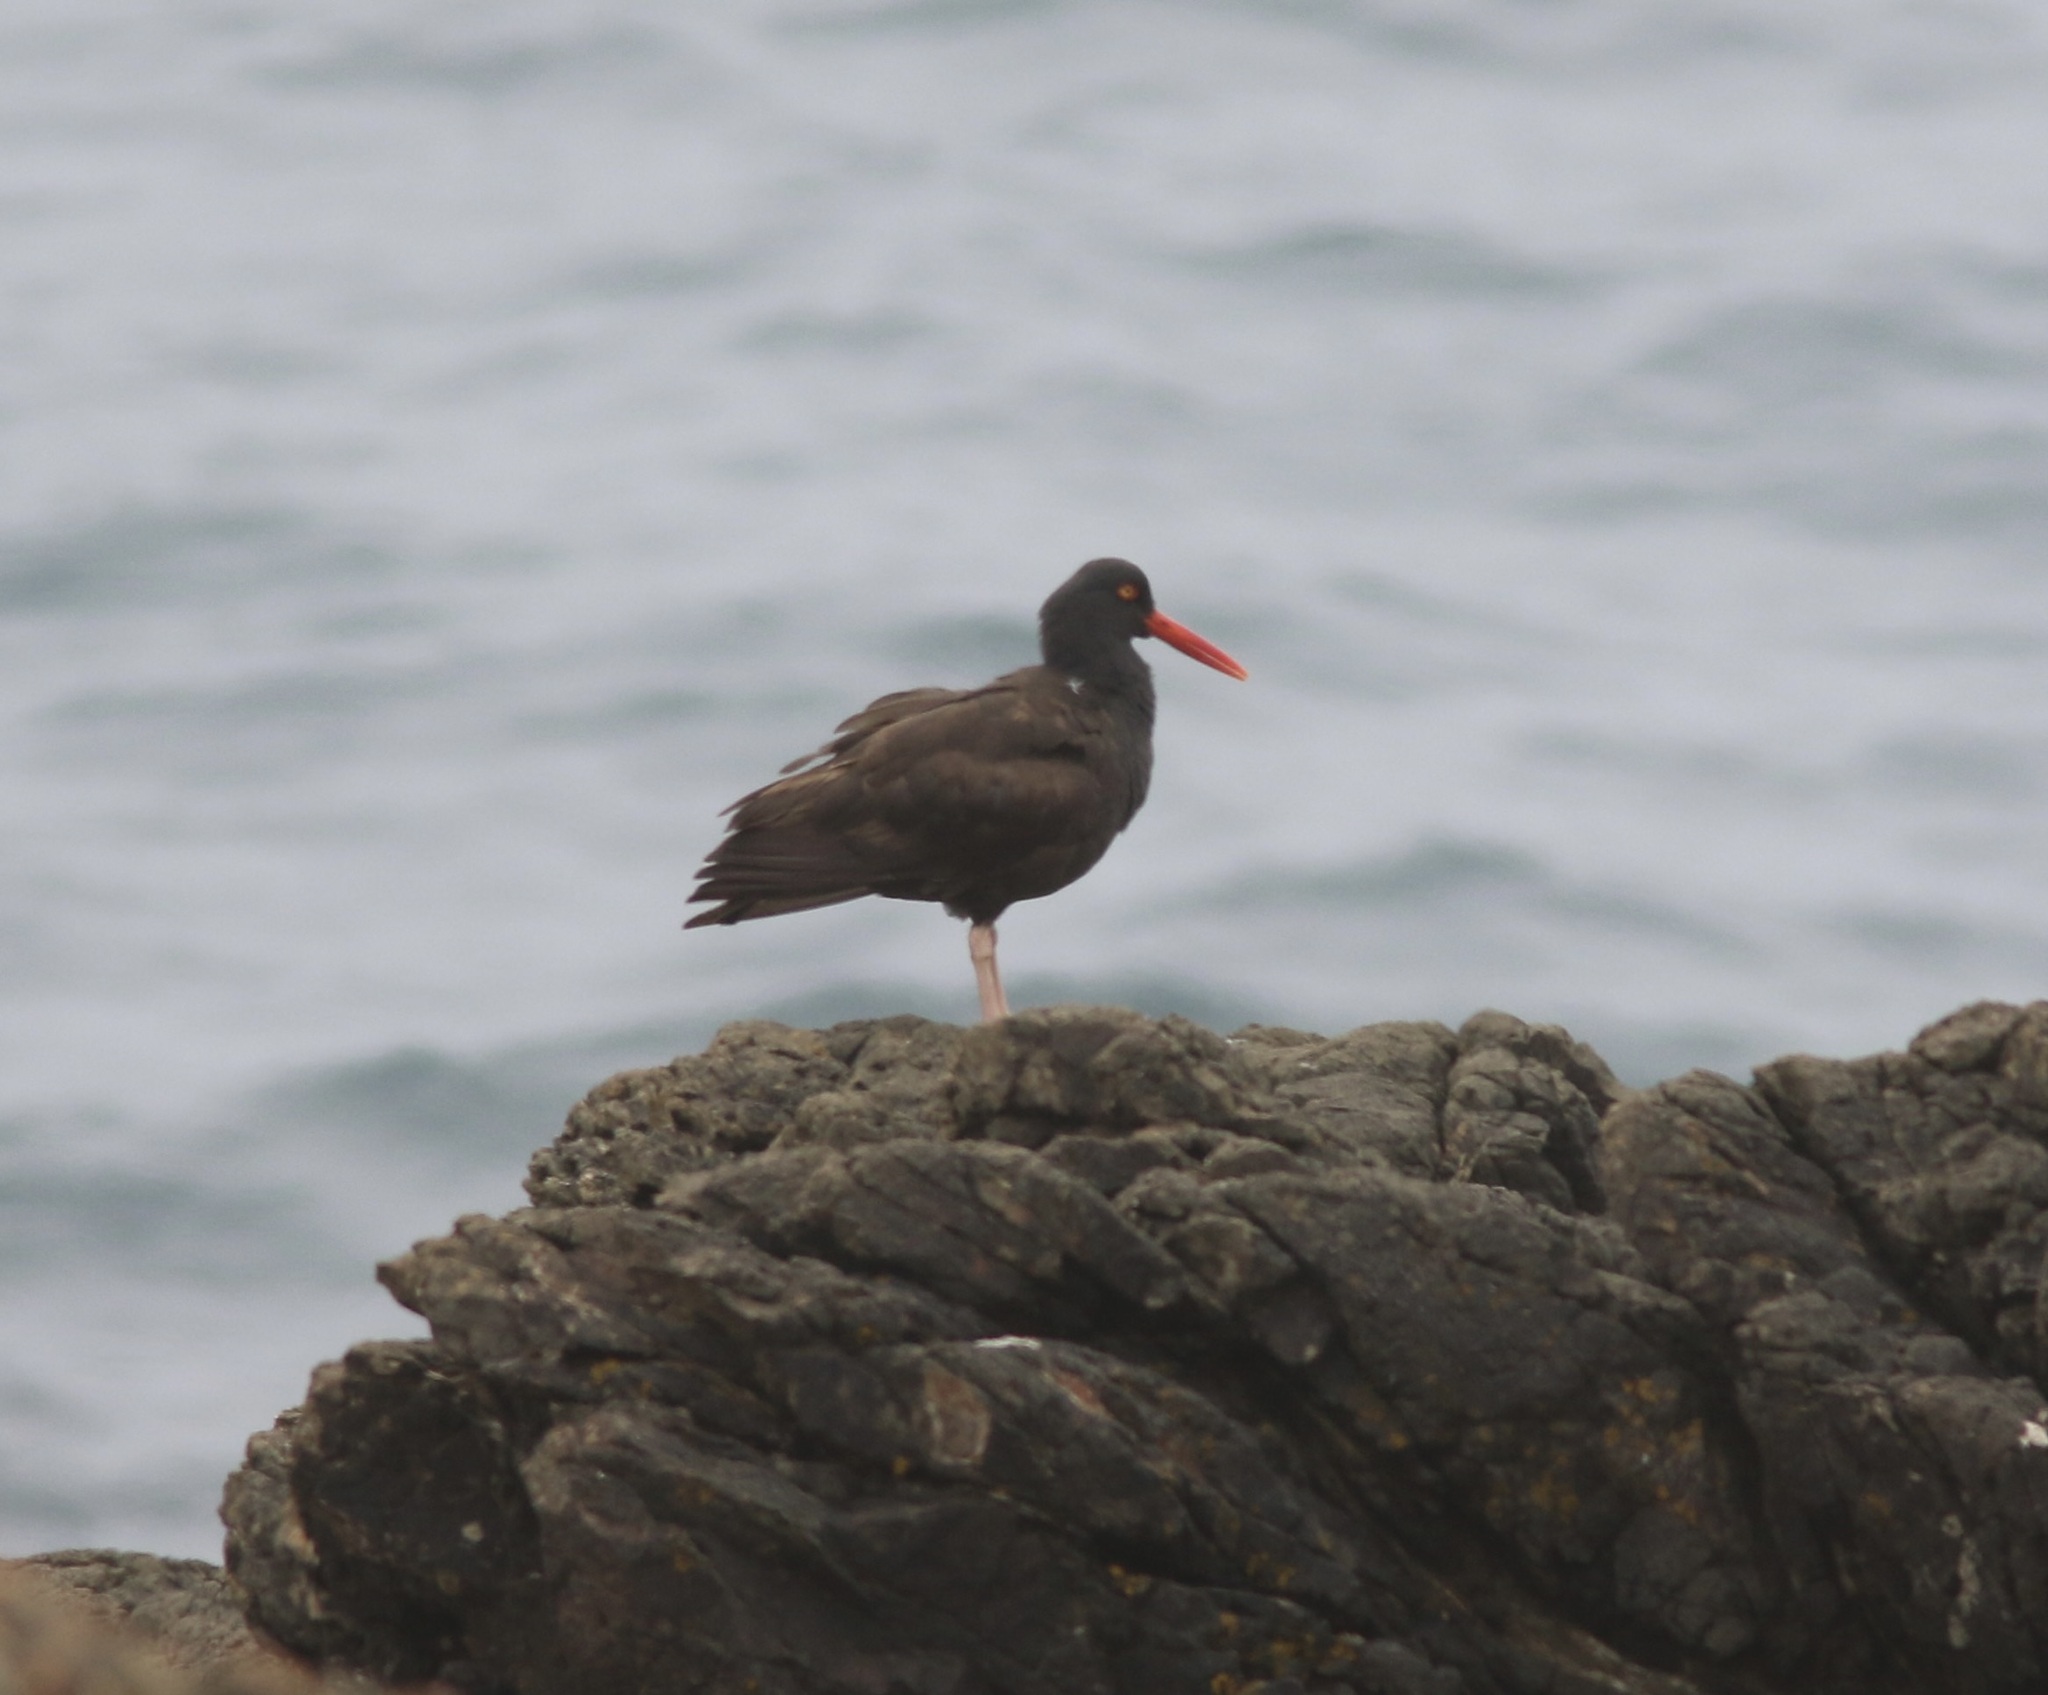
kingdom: Animalia
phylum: Chordata
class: Aves
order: Charadriiformes
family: Haematopodidae
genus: Haematopus
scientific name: Haematopus bachmani
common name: Black oystercatcher
